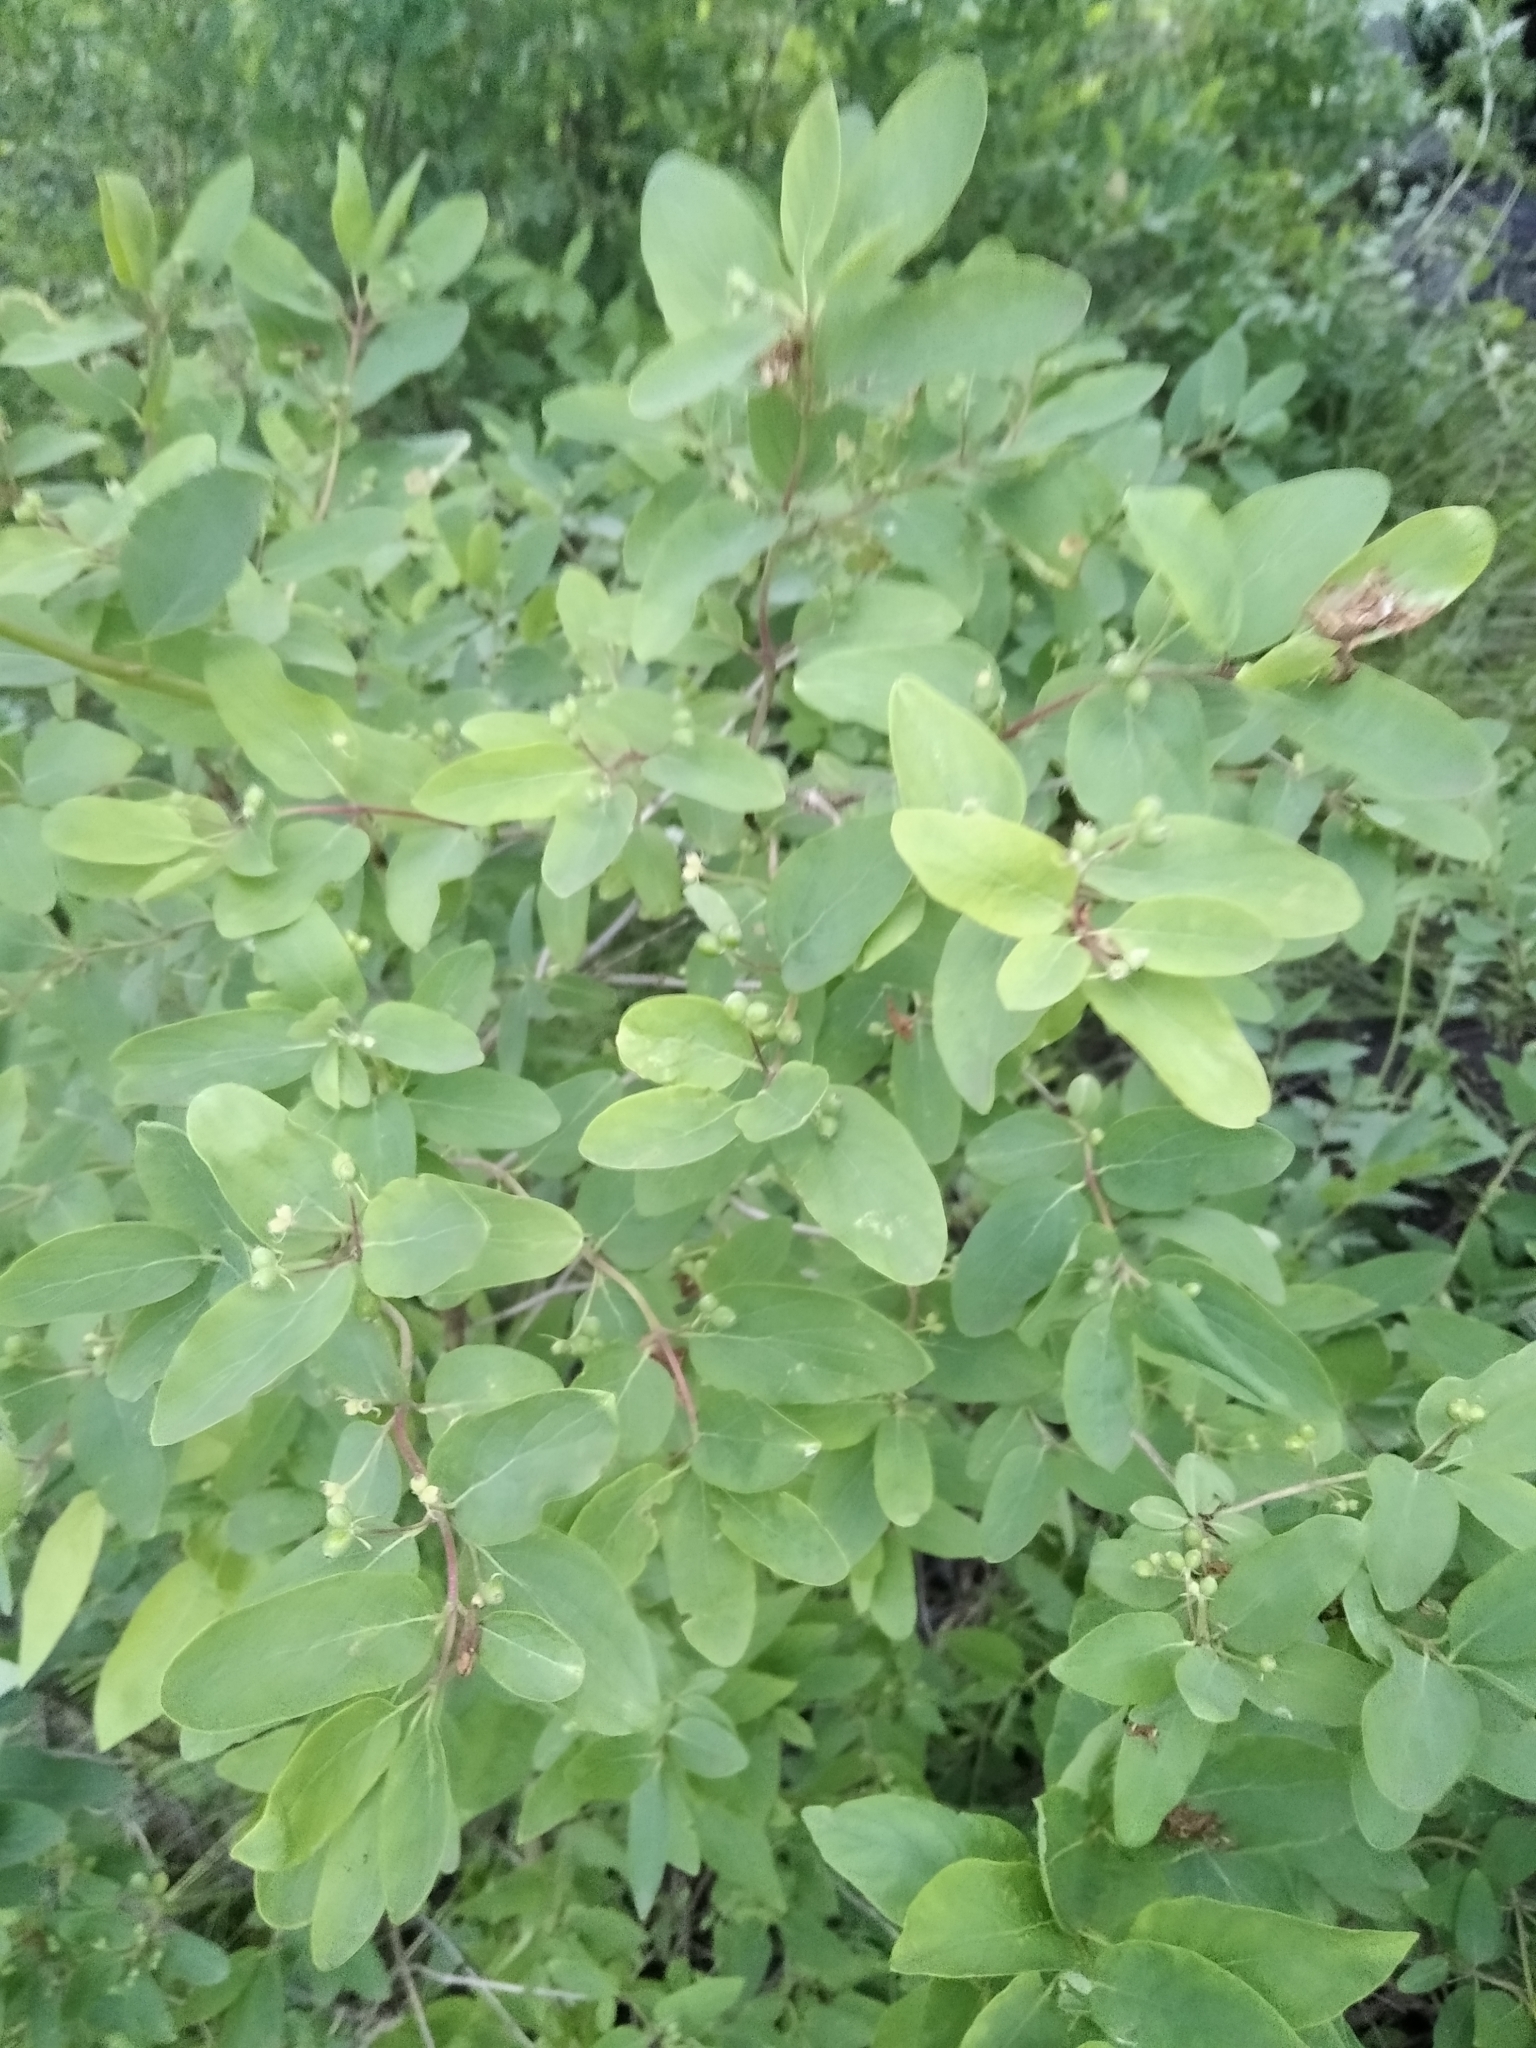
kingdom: Plantae
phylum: Tracheophyta
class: Magnoliopsida
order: Dipsacales
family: Caprifoliaceae
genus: Lonicera
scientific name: Lonicera tatarica
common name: Tatarian honeysuckle
